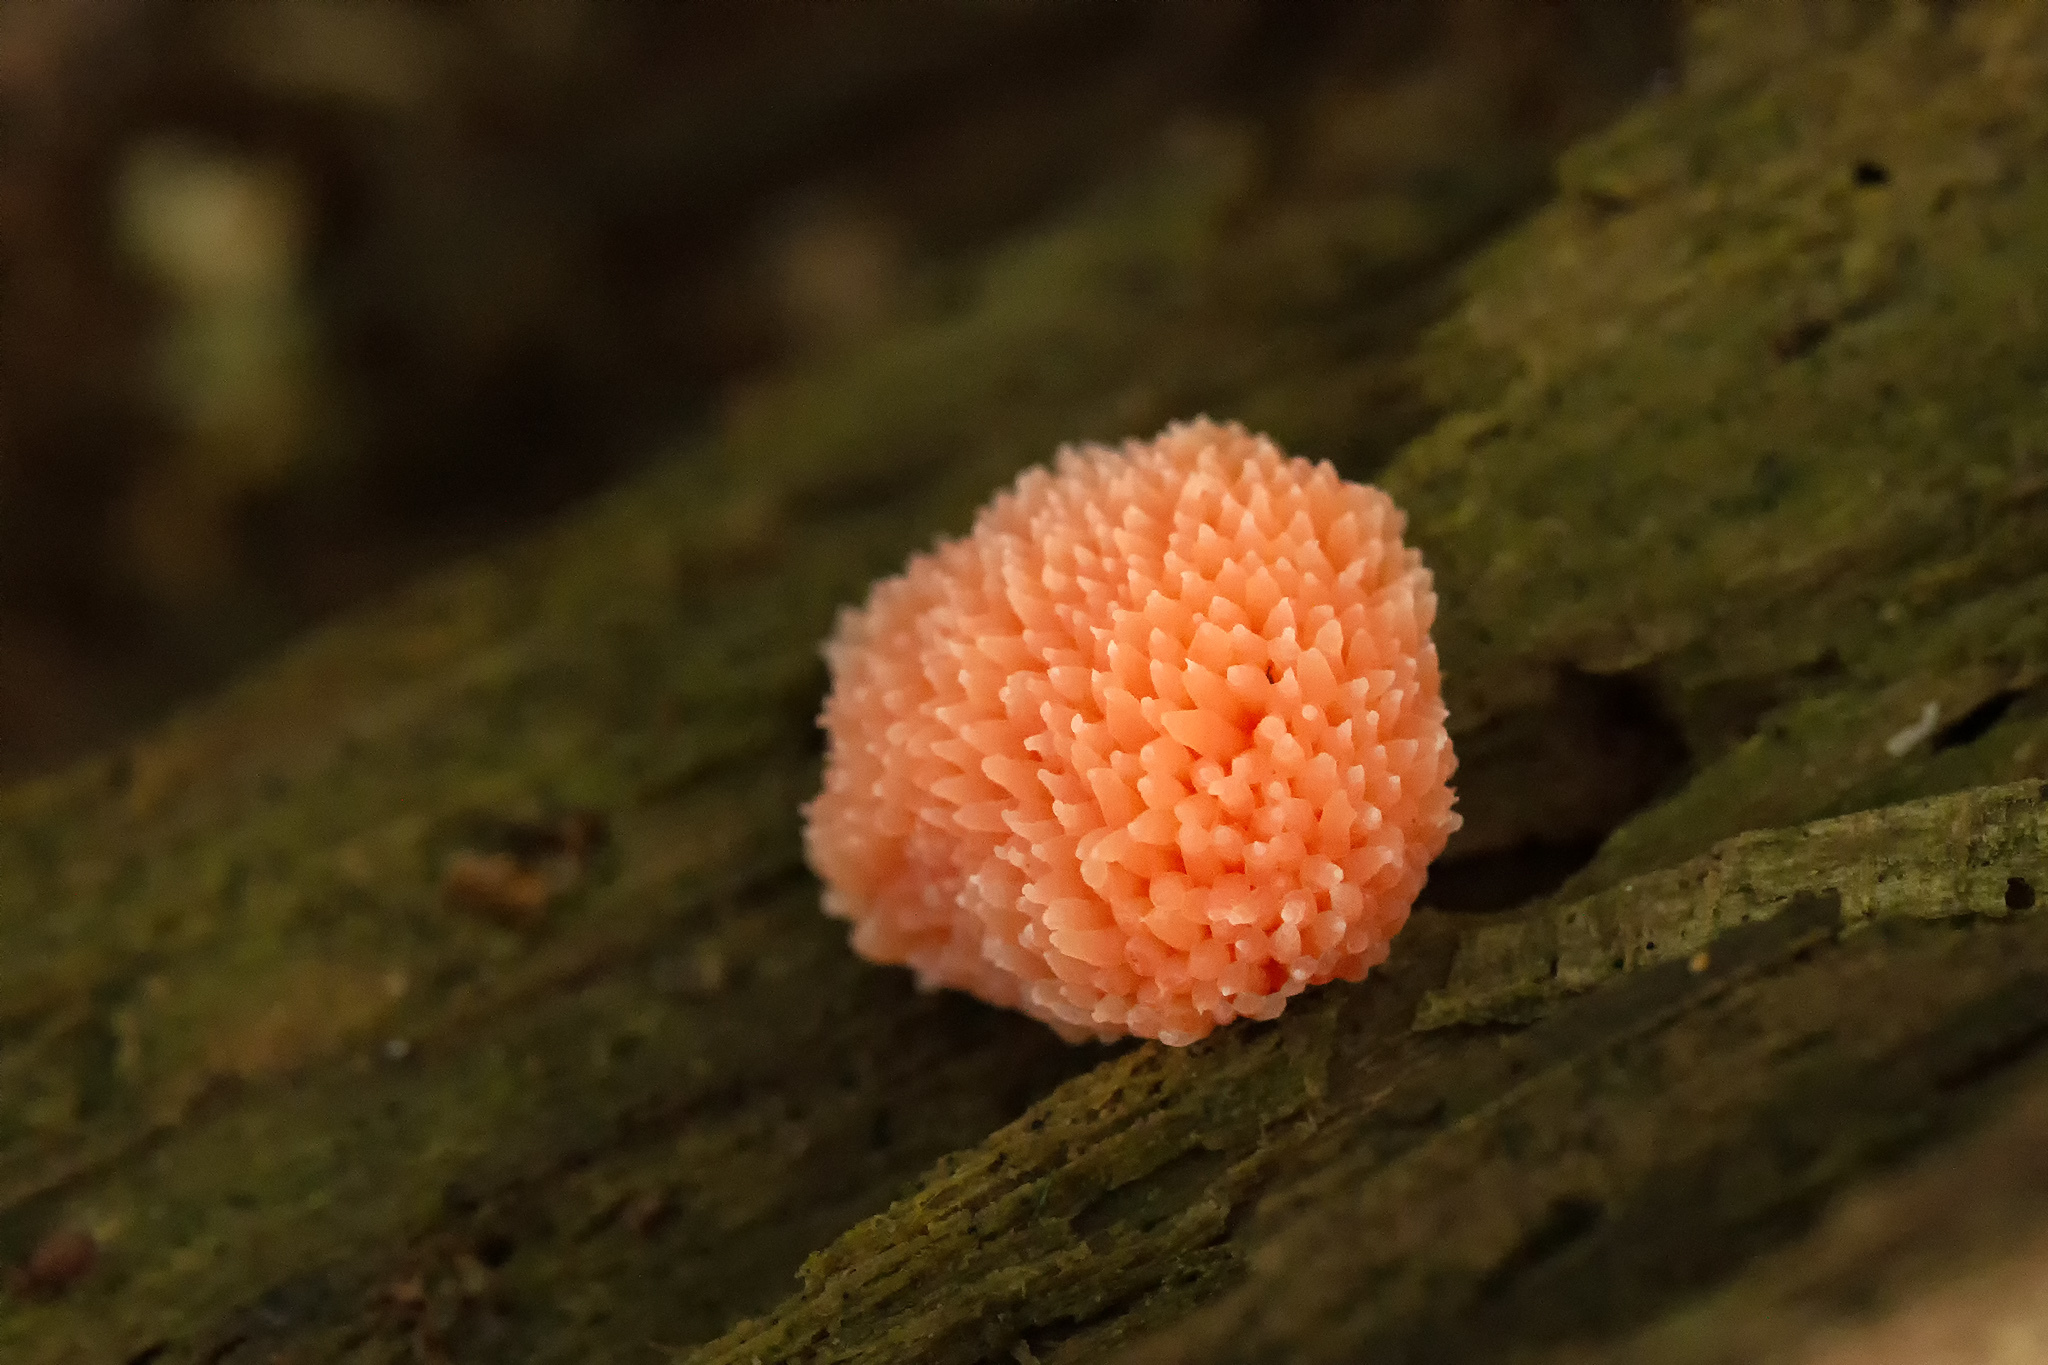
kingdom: Protozoa
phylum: Mycetozoa
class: Myxomycetes
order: Cribrariales
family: Tubiferaceae
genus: Tubifera
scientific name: Tubifera ferruginosa
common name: Red raspberry slime mold
